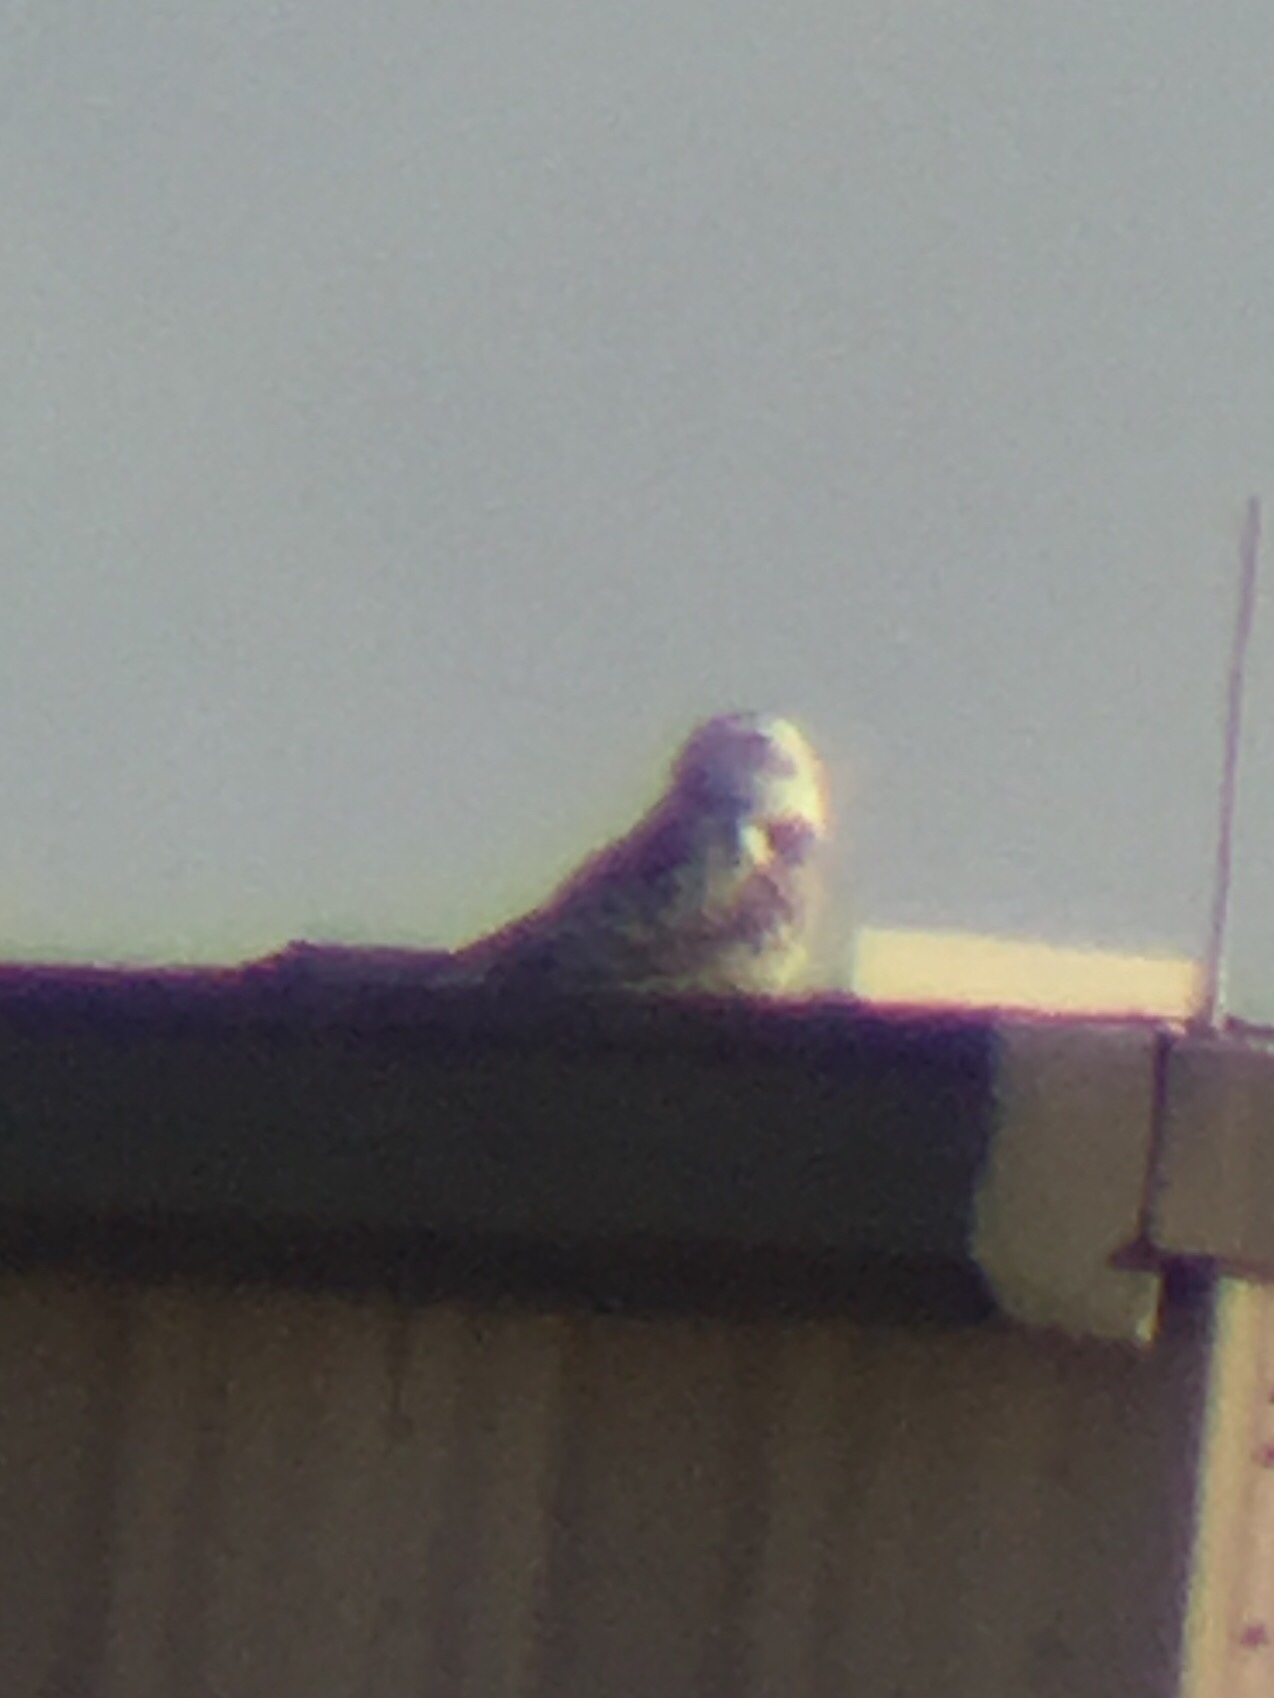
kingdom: Animalia
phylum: Chordata
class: Aves
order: Strigiformes
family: Strigidae
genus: Bubo
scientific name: Bubo scandiacus
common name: Snowy owl
